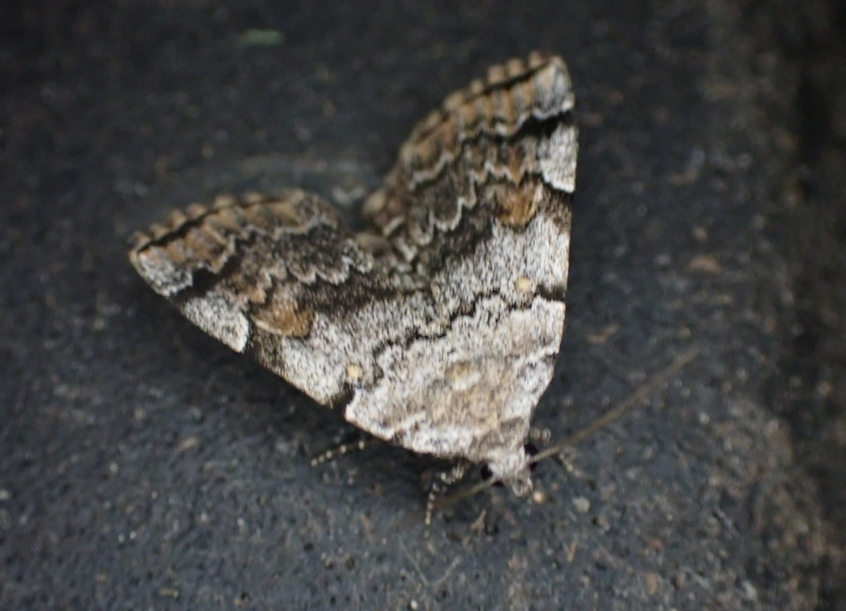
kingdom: Animalia
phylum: Arthropoda
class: Insecta
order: Lepidoptera
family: Erebidae
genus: Idia
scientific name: Idia americalis
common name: American idia moth
